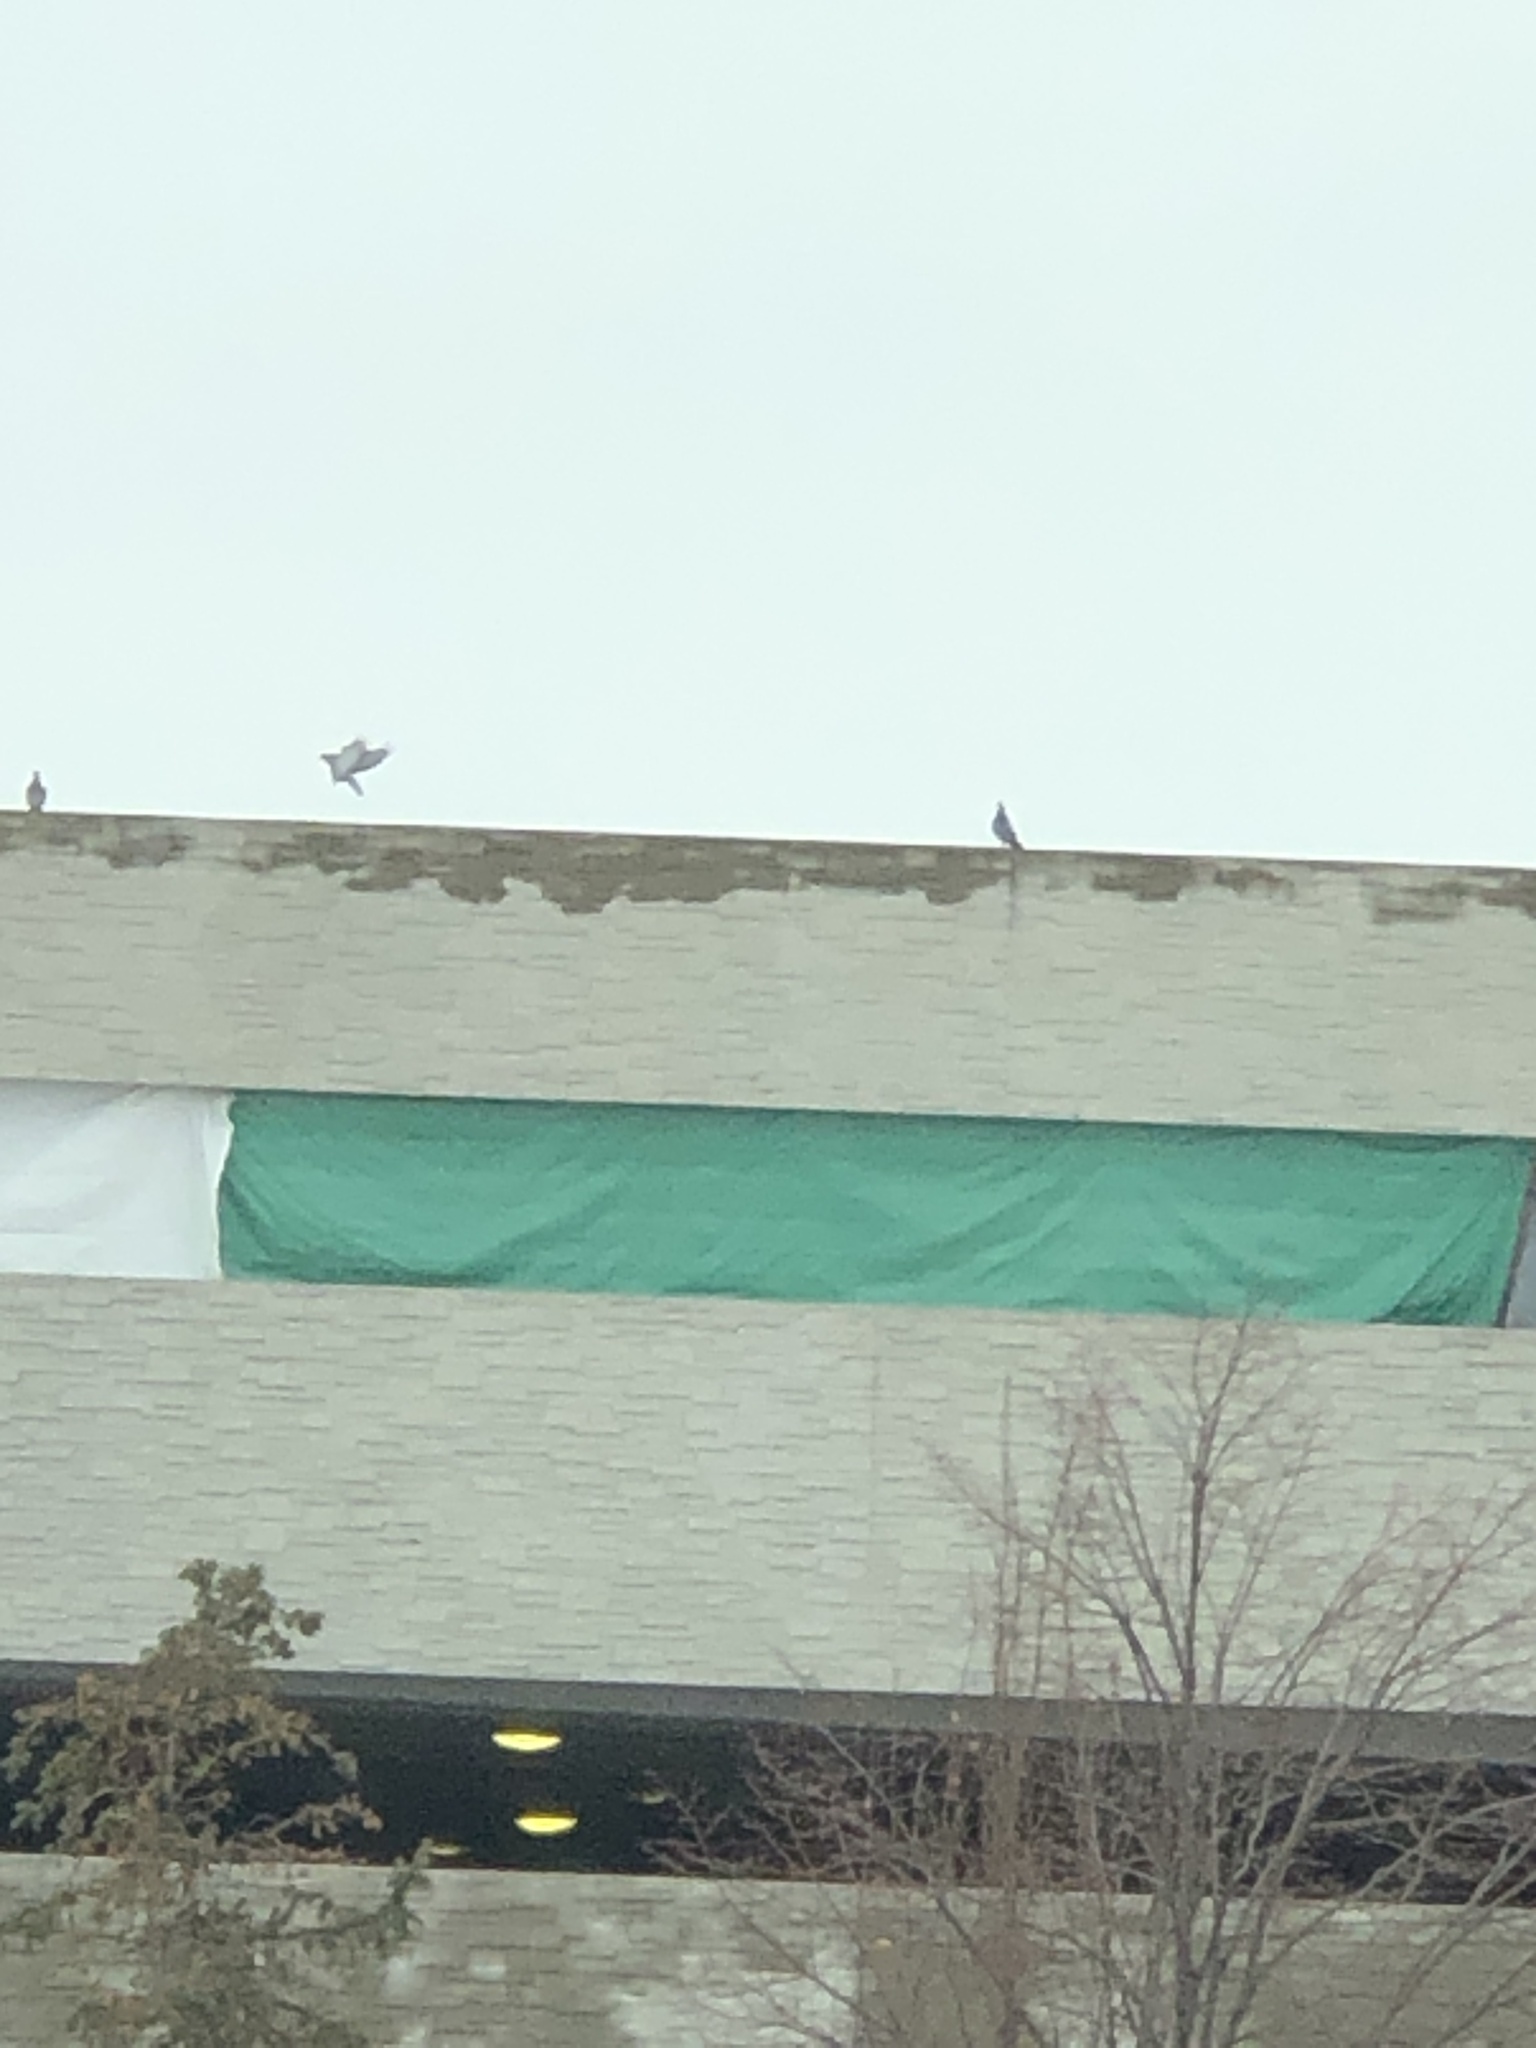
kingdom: Animalia
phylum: Chordata
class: Aves
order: Columbiformes
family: Columbidae
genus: Columba
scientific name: Columba livia
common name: Rock pigeon
